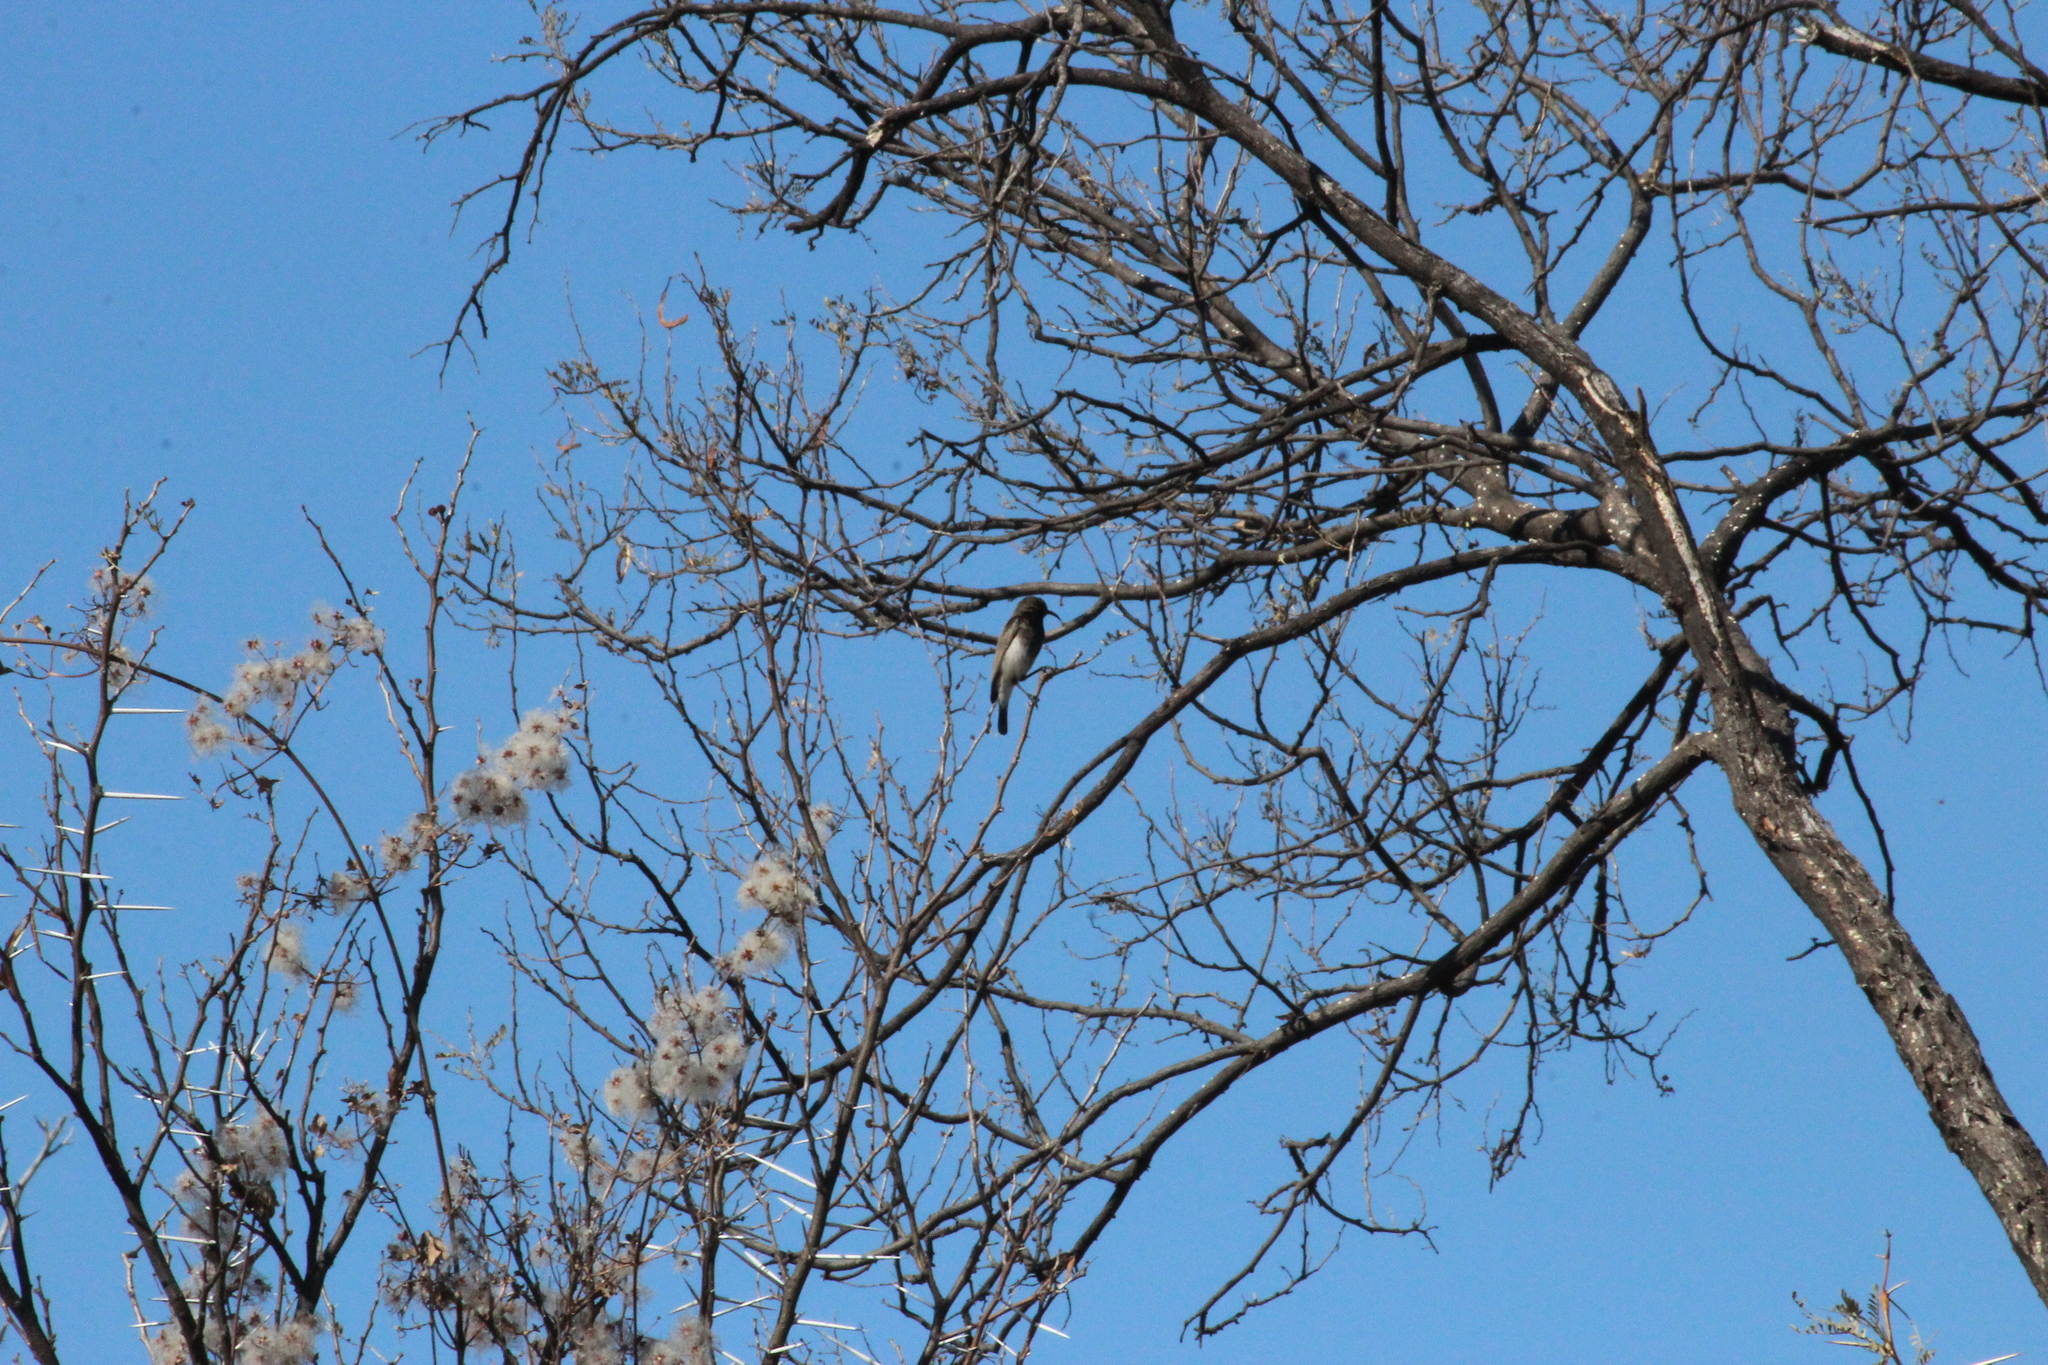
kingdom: Animalia
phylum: Chordata
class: Aves
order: Passeriformes
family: Nectariniidae
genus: Cinnyris
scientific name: Cinnyris fuscus
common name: Dusky sunbird
